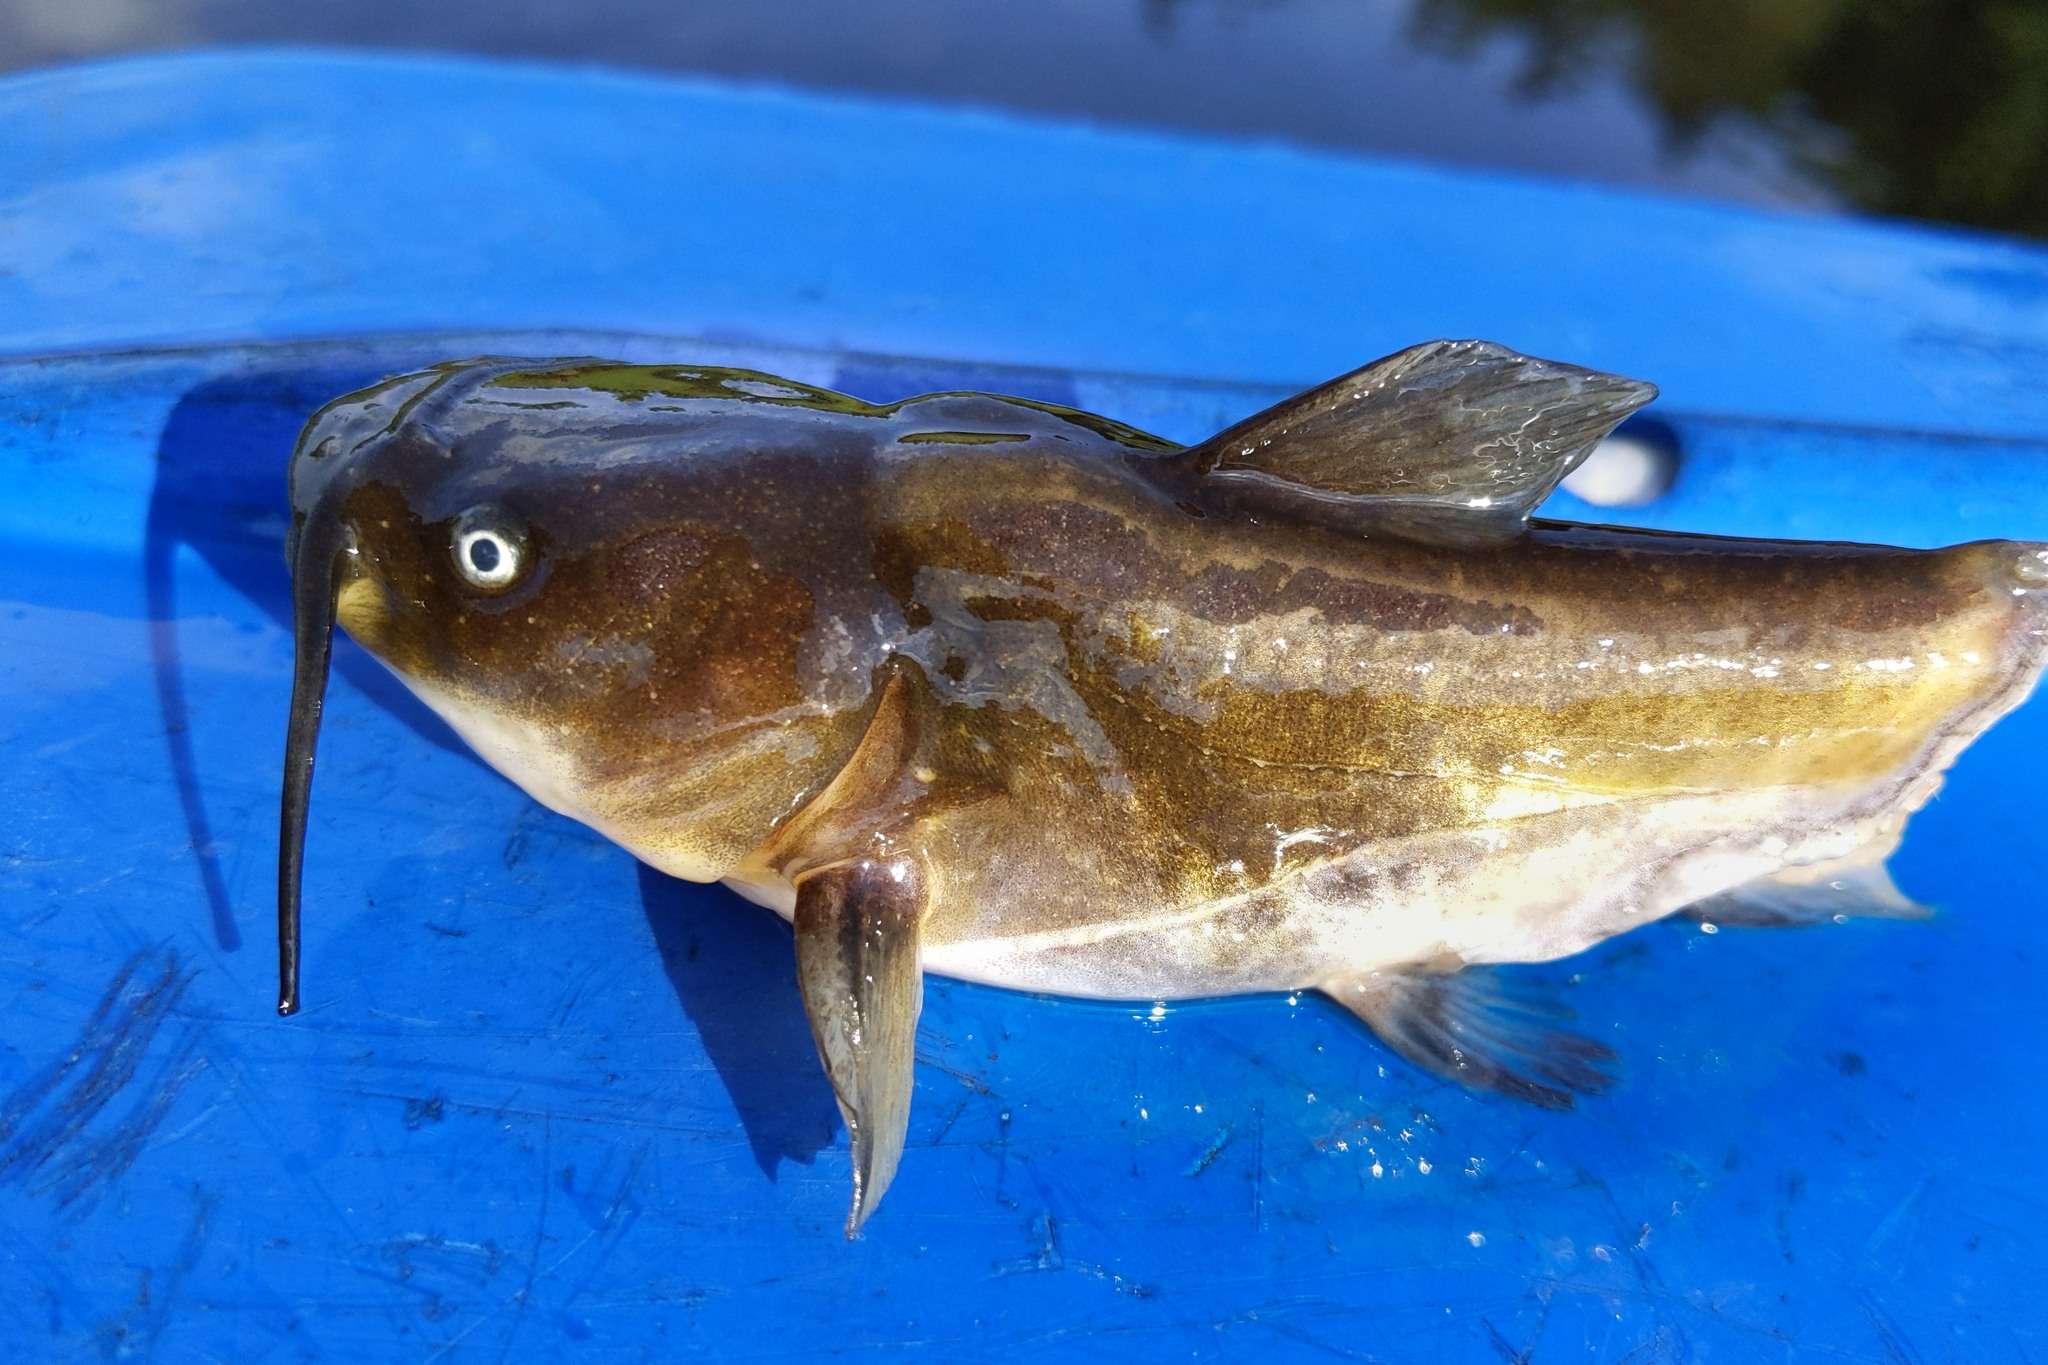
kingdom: Animalia
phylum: Chordata
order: Siluriformes
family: Ictaluridae
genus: Ameiurus
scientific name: Ameiurus nebulosus
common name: Brown bullhead
